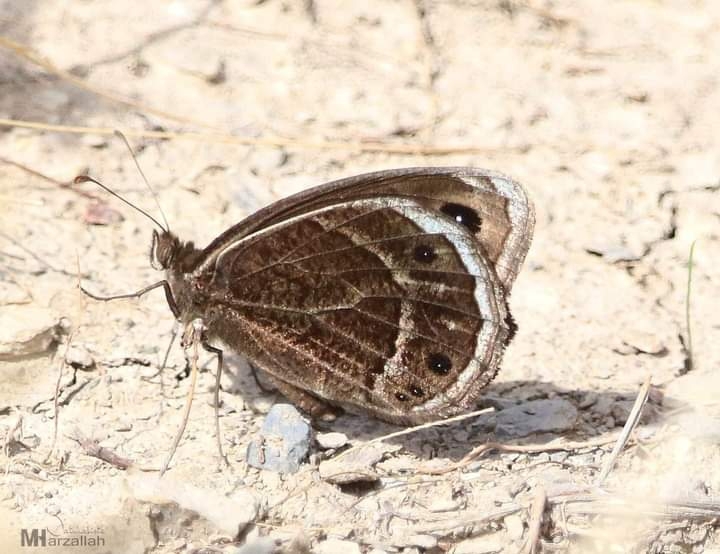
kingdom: Animalia
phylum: Arthropoda
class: Insecta
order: Lepidoptera
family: Nymphalidae
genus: Berberia
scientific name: Berberia abdelkader
